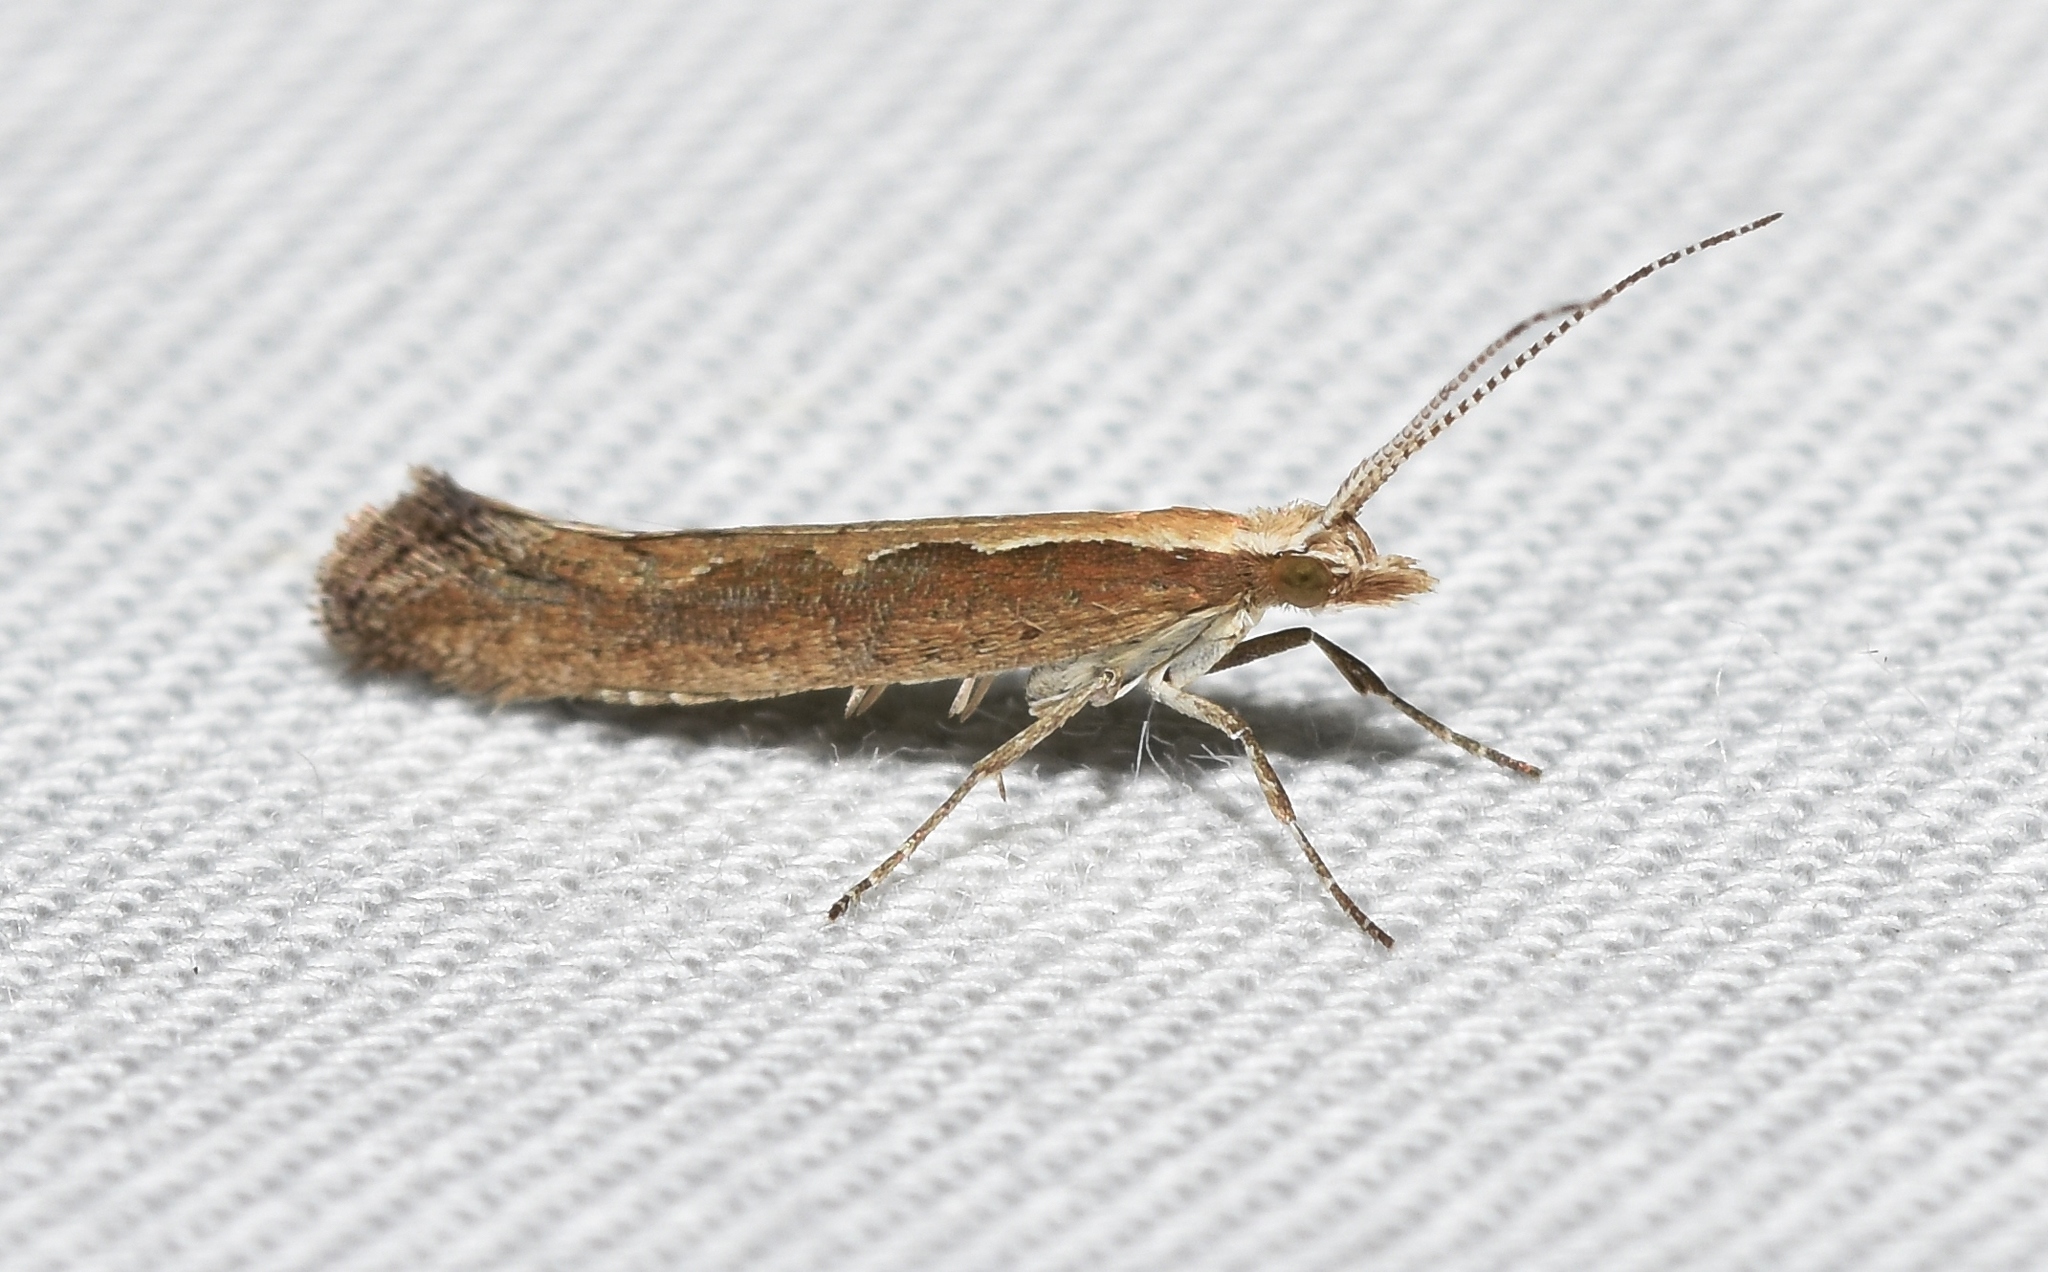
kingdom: Animalia
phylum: Arthropoda
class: Insecta
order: Lepidoptera
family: Plutellidae
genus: Plutella
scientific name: Plutella xylostella
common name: Diamond-back moth
